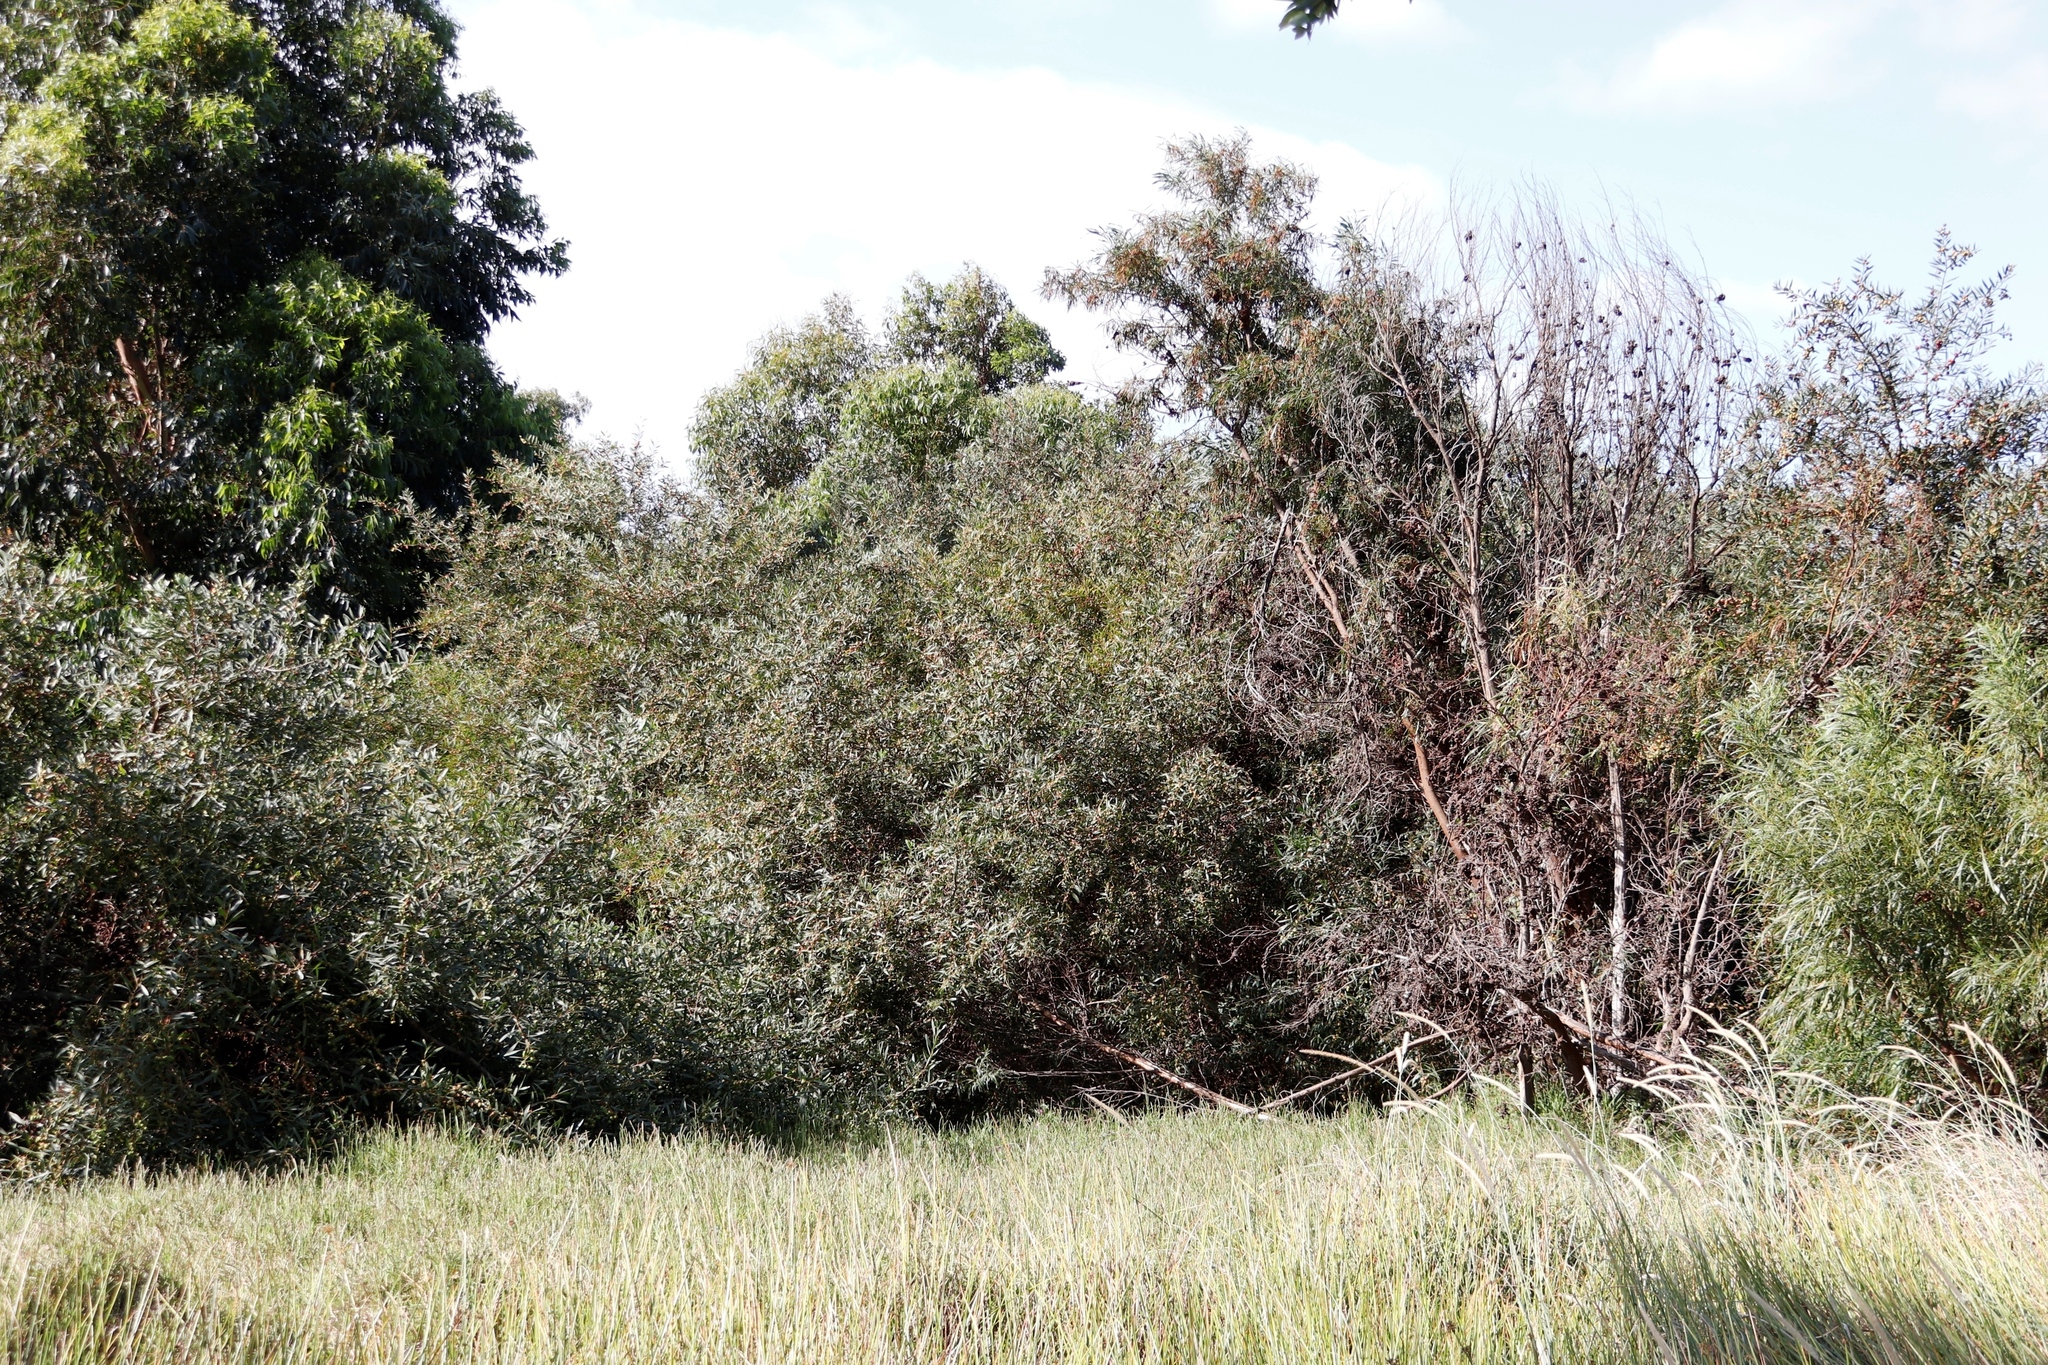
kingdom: Plantae
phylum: Tracheophyta
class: Magnoliopsida
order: Fabales
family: Fabaceae
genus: Acacia
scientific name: Acacia longifolia
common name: Sydney golden wattle
